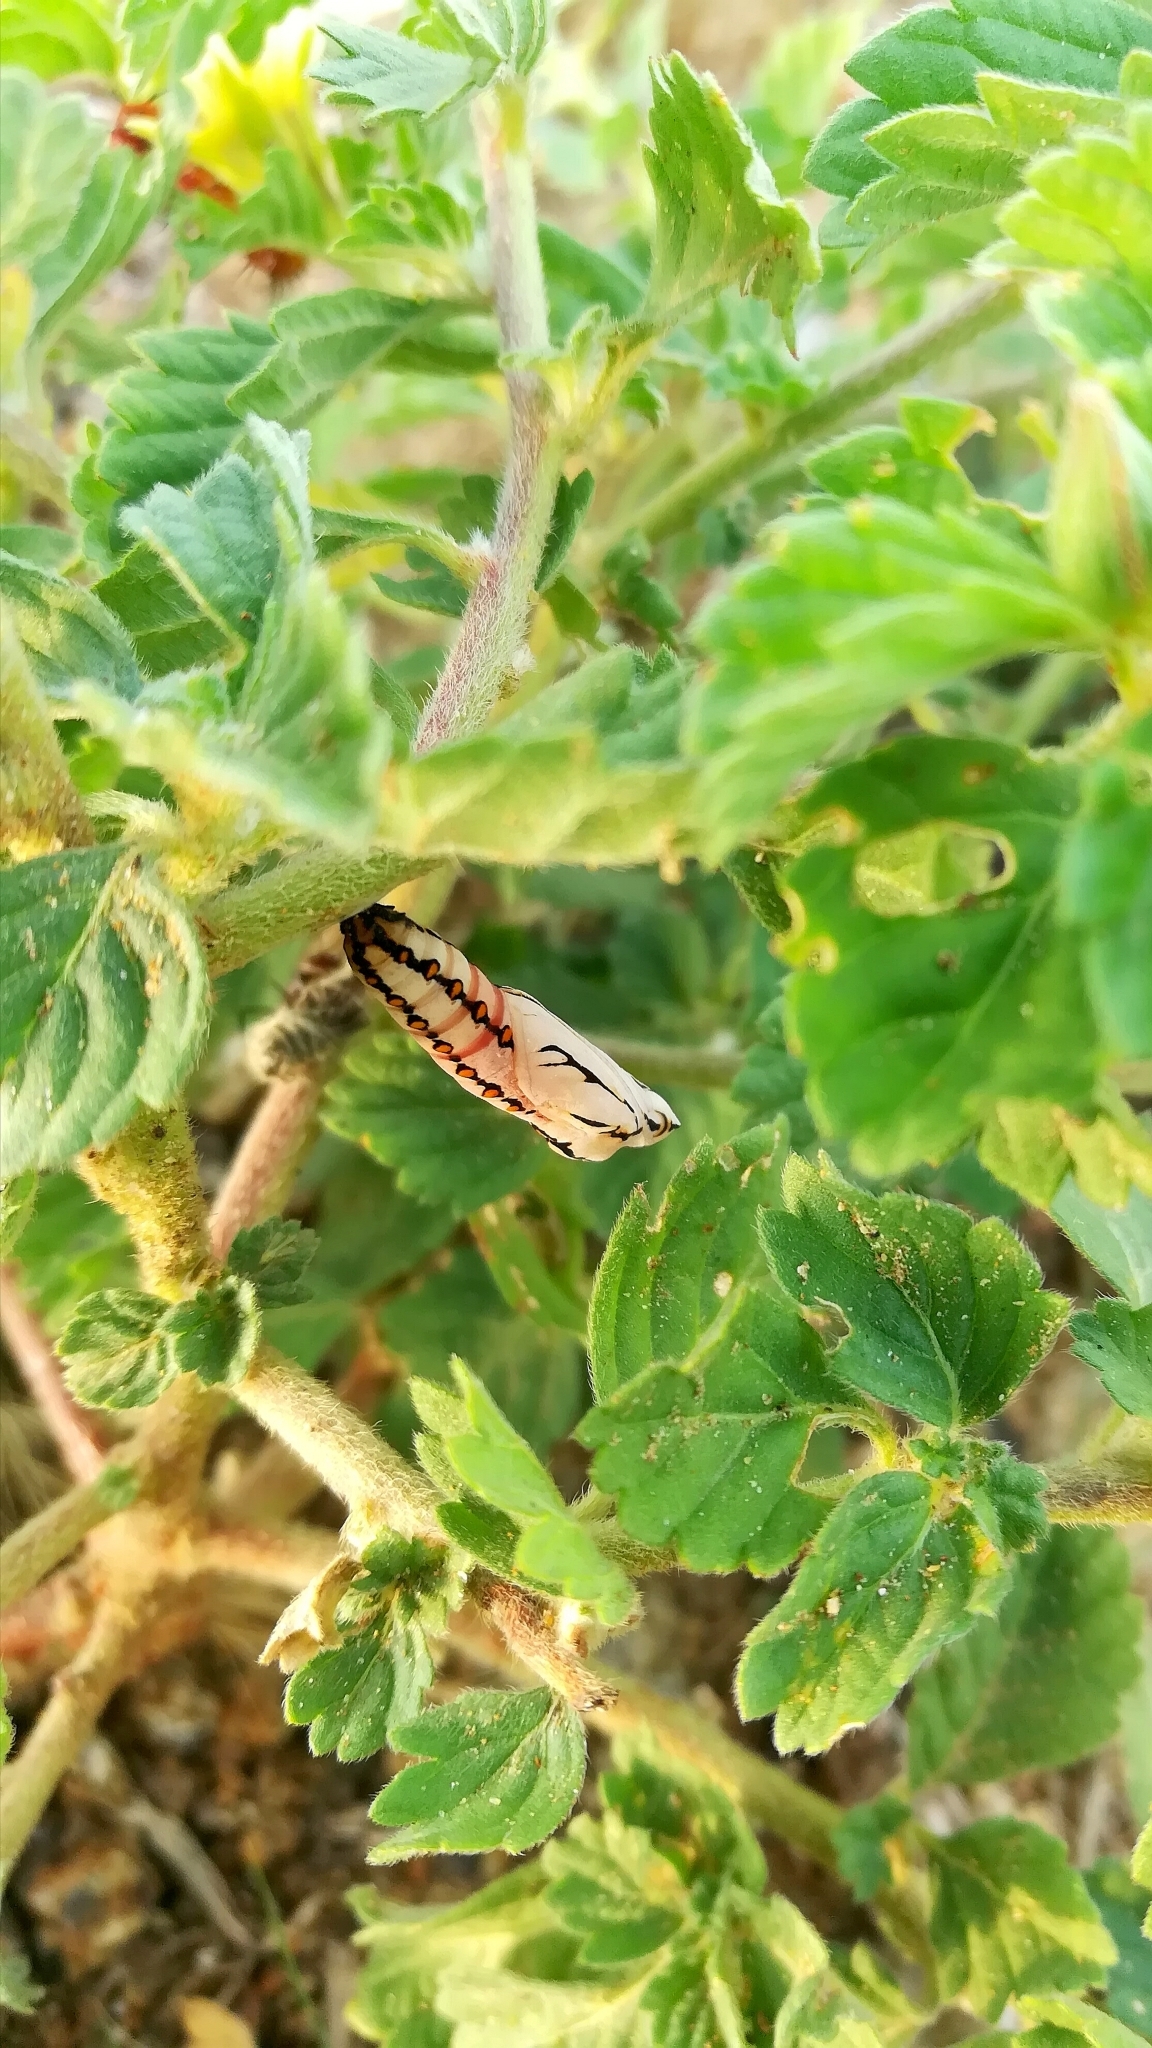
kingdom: Animalia
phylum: Arthropoda
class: Insecta
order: Lepidoptera
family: Nymphalidae
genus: Acraea
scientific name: Acraea terpsicore
